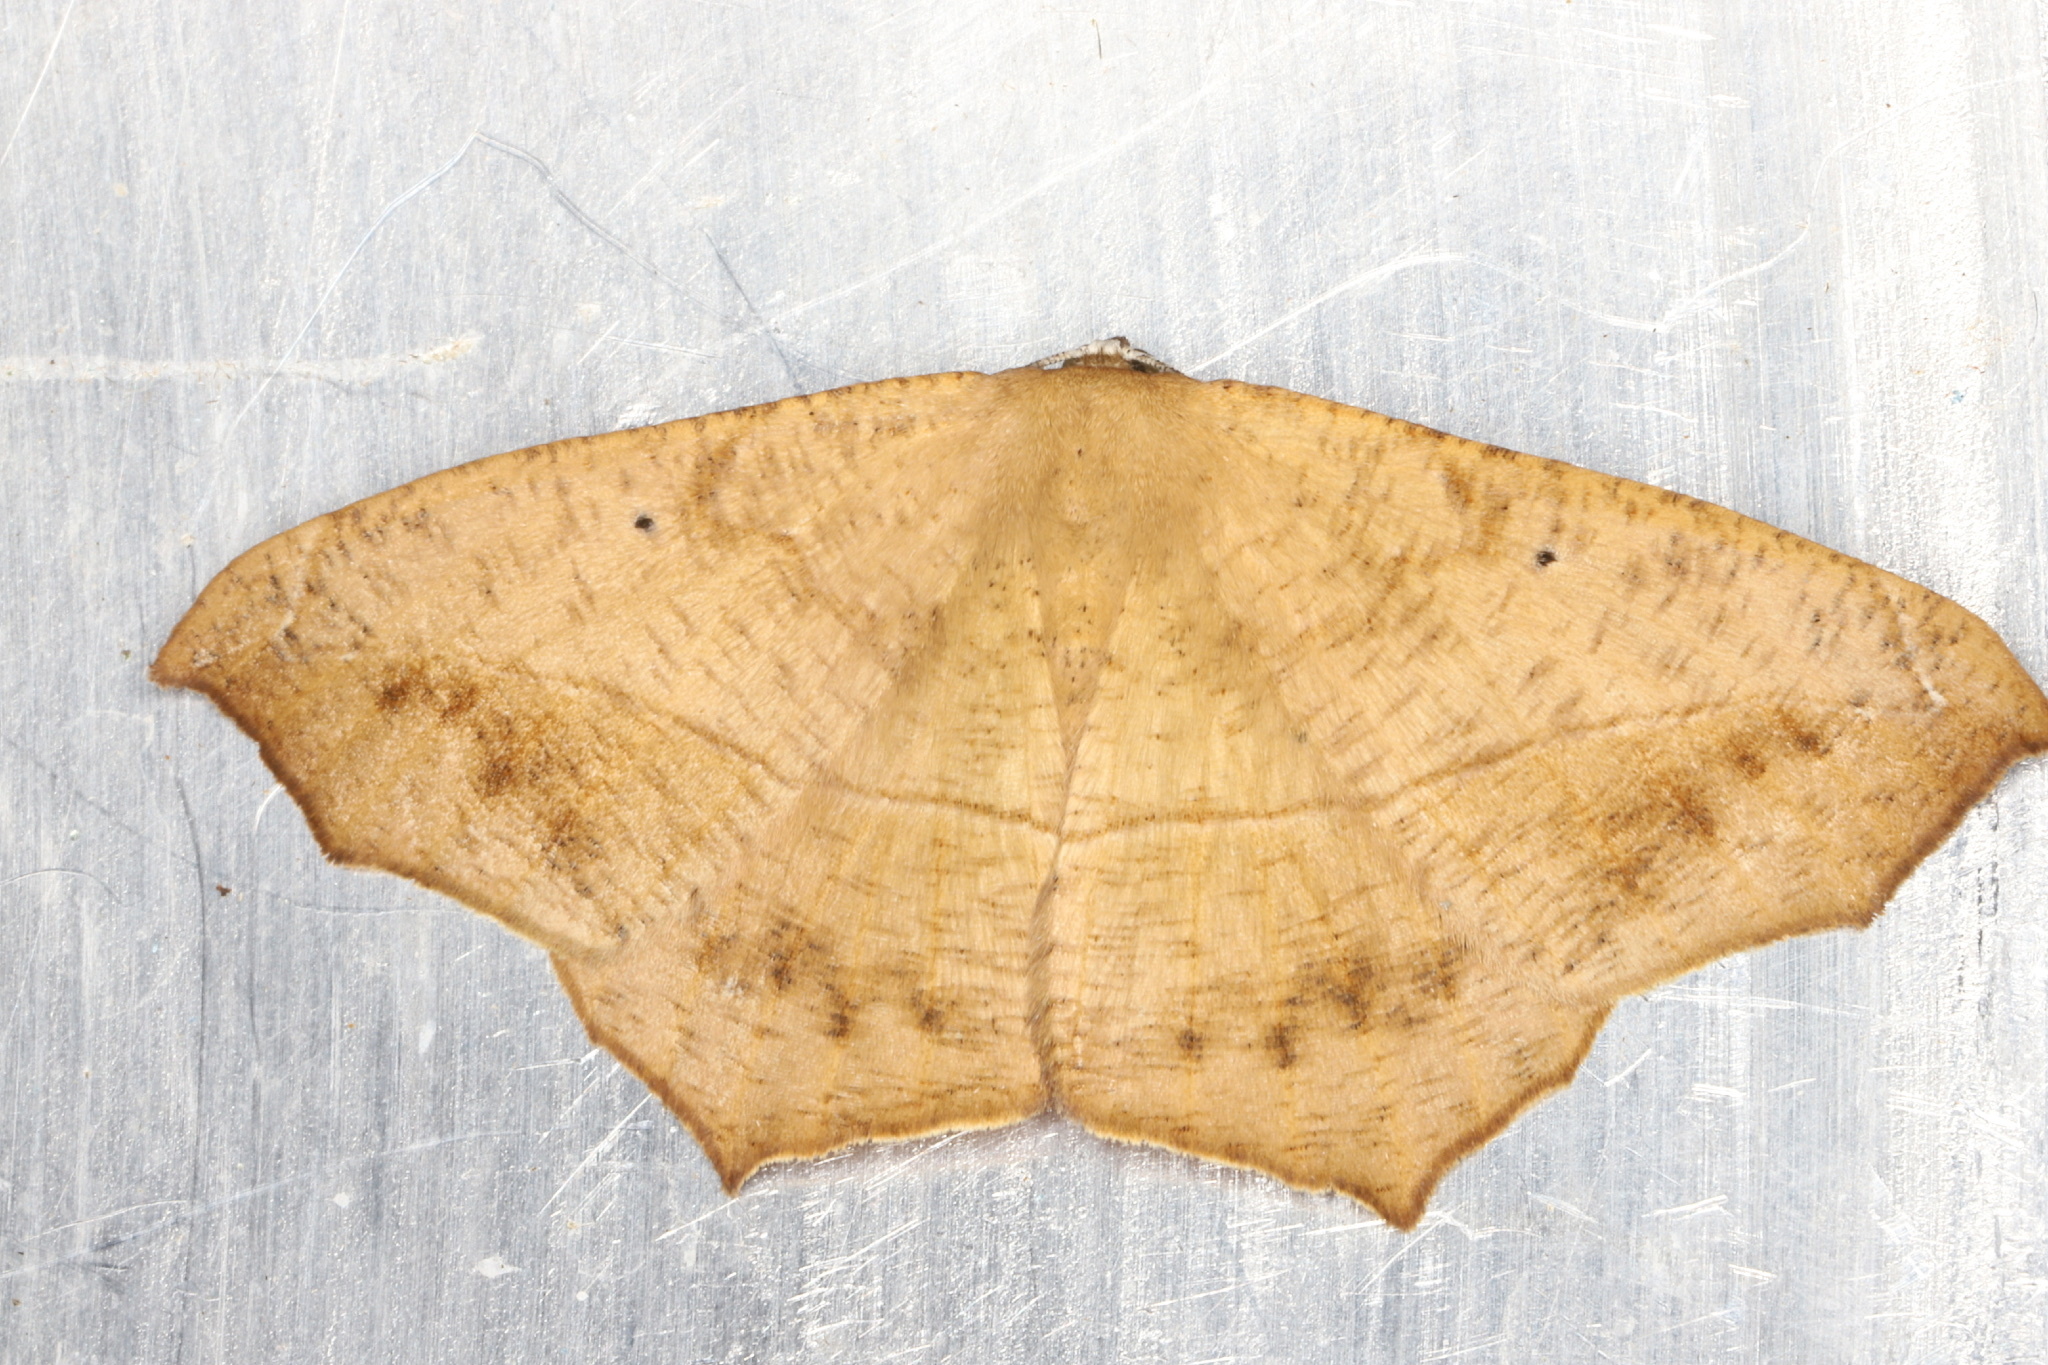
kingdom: Animalia
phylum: Arthropoda
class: Insecta
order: Lepidoptera
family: Geometridae
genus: Prochoerodes
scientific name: Prochoerodes lineola
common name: Large maple spanworm
